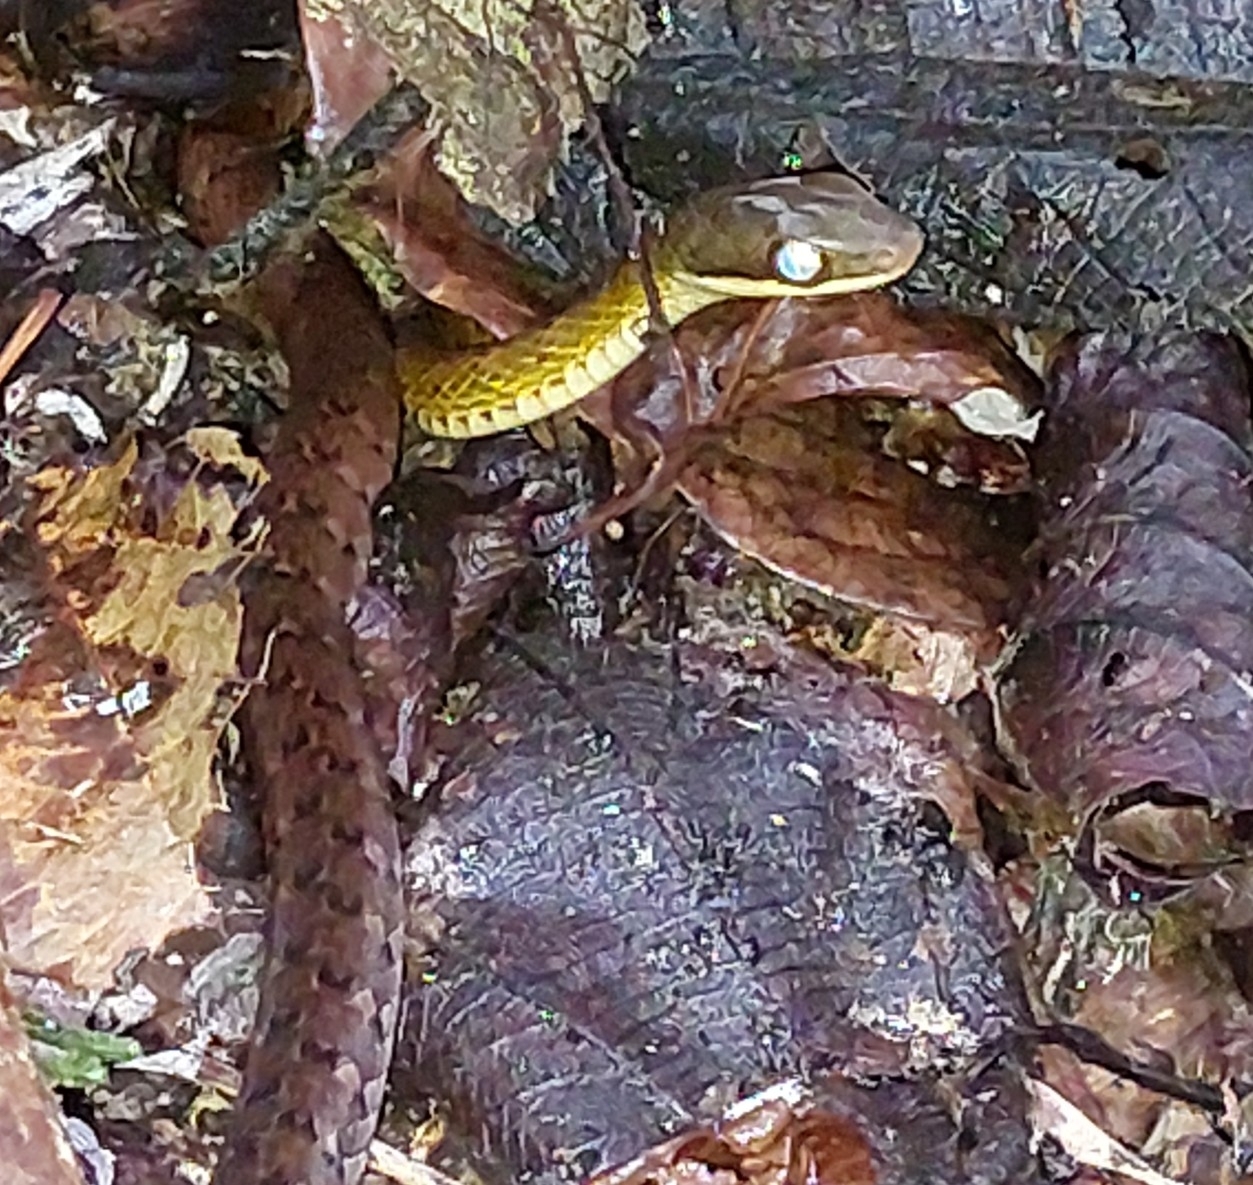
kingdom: Animalia
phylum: Chordata
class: Squamata
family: Colubridae
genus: Dendrophidion
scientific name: Dendrophidion percarinatum
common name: South american forest racer
